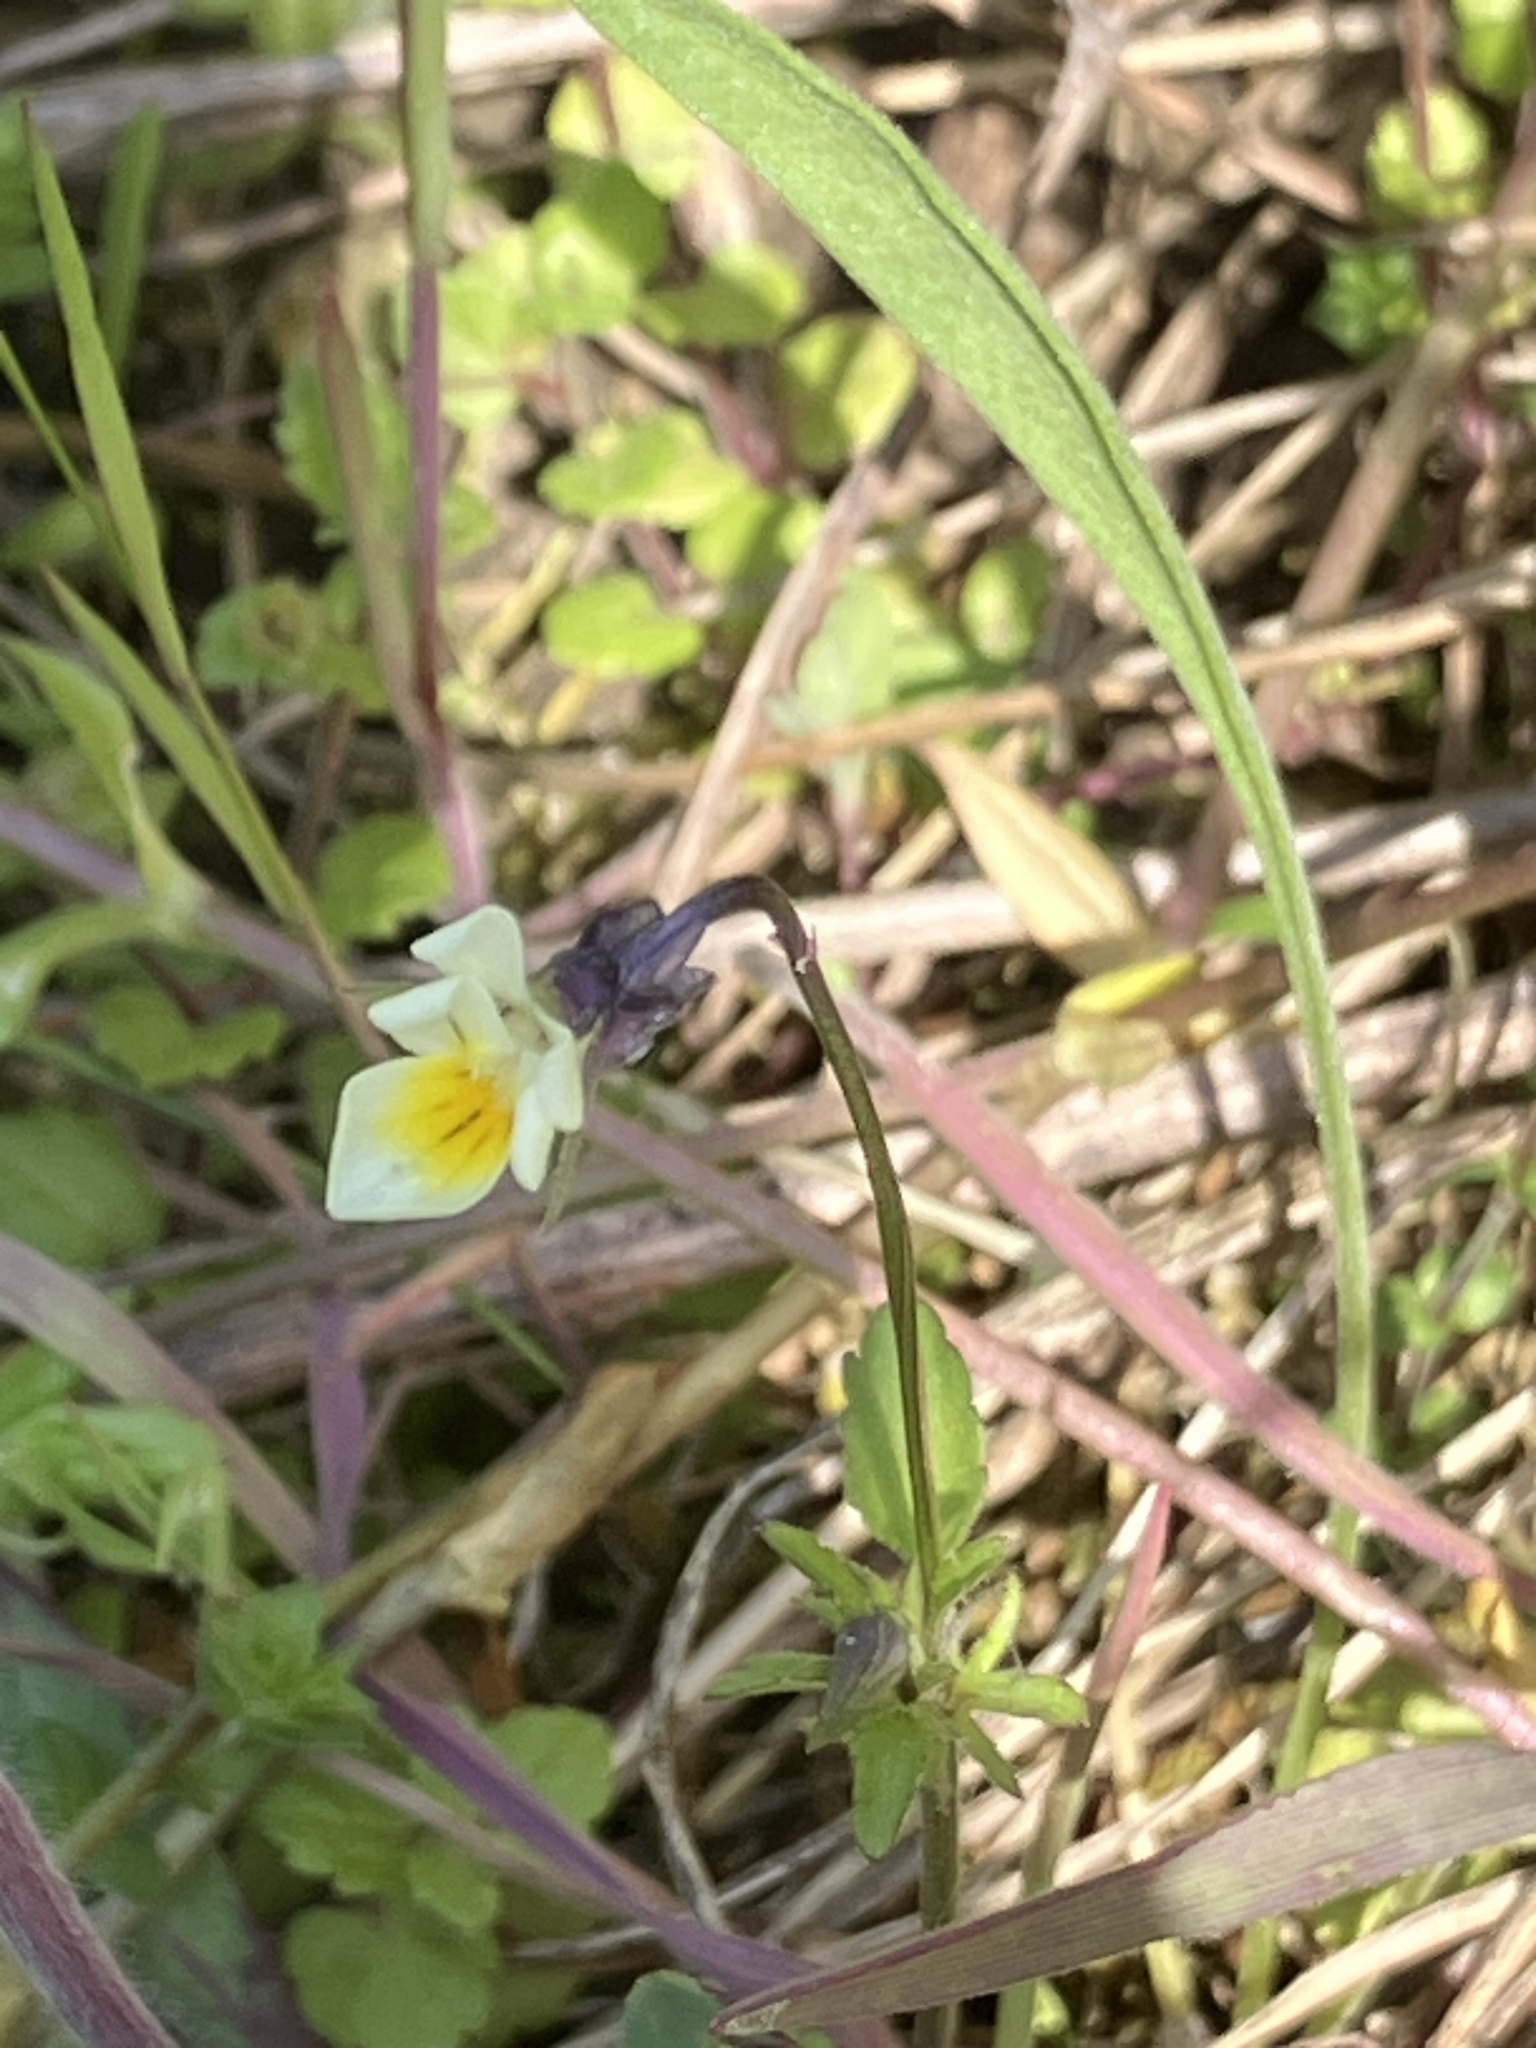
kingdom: Plantae
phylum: Tracheophyta
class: Magnoliopsida
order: Malpighiales
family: Violaceae
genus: Viola
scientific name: Viola arvensis
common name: Field pansy
